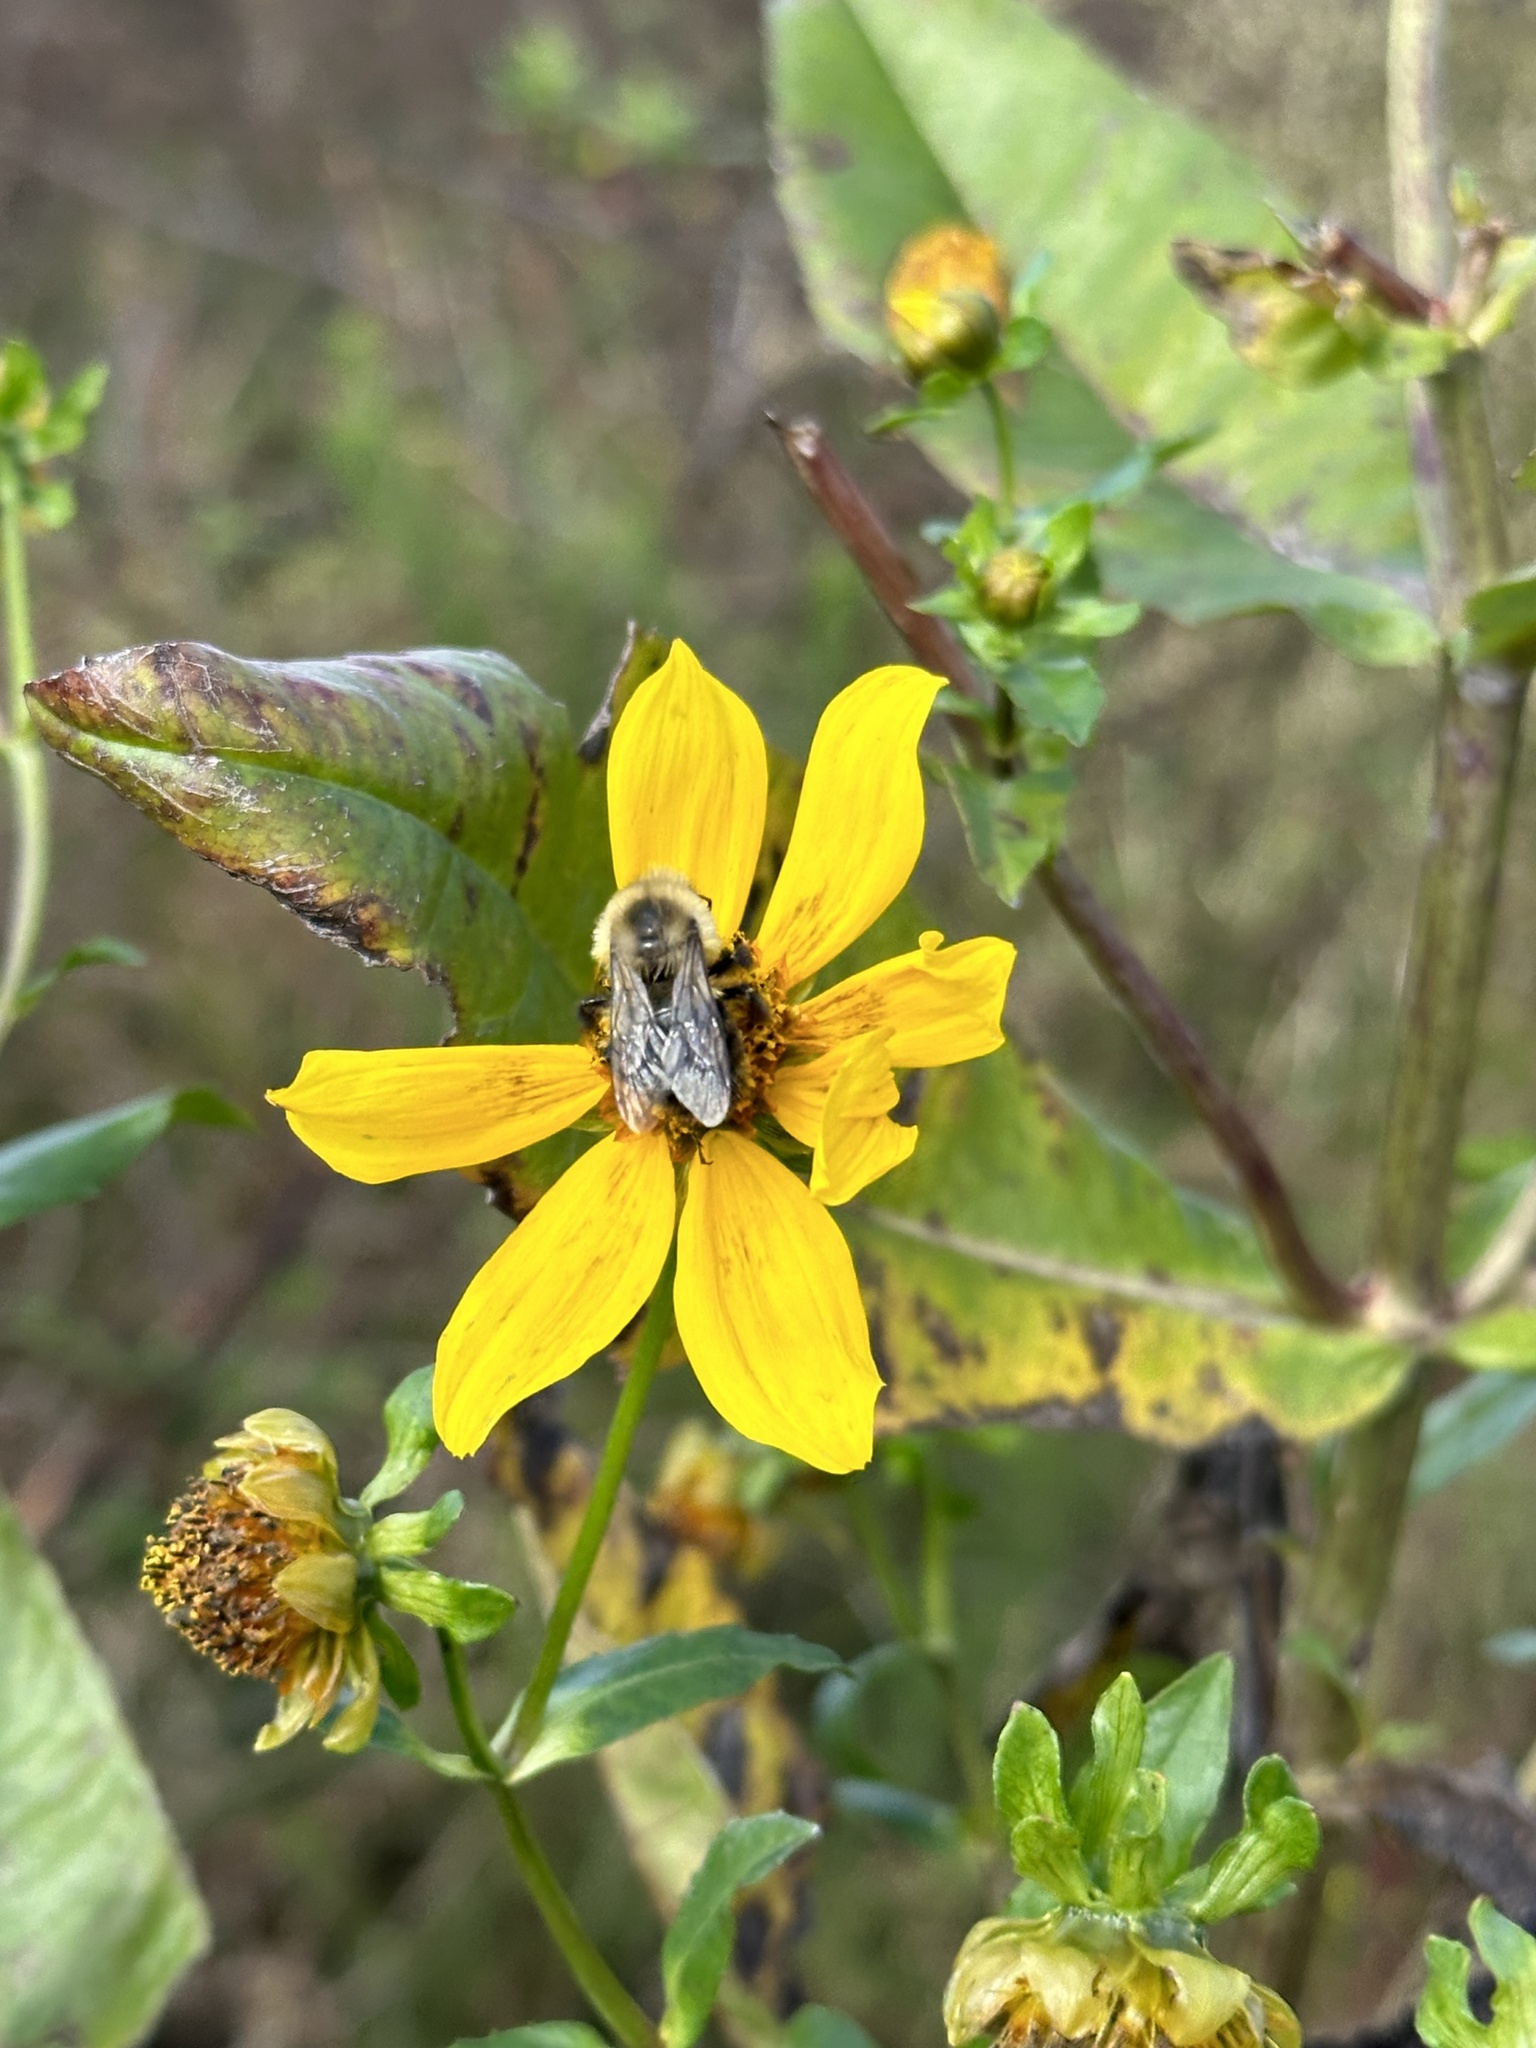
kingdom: Animalia
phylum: Arthropoda
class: Insecta
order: Hymenoptera
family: Apidae
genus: Bombus
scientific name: Bombus impatiens
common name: Common eastern bumble bee
